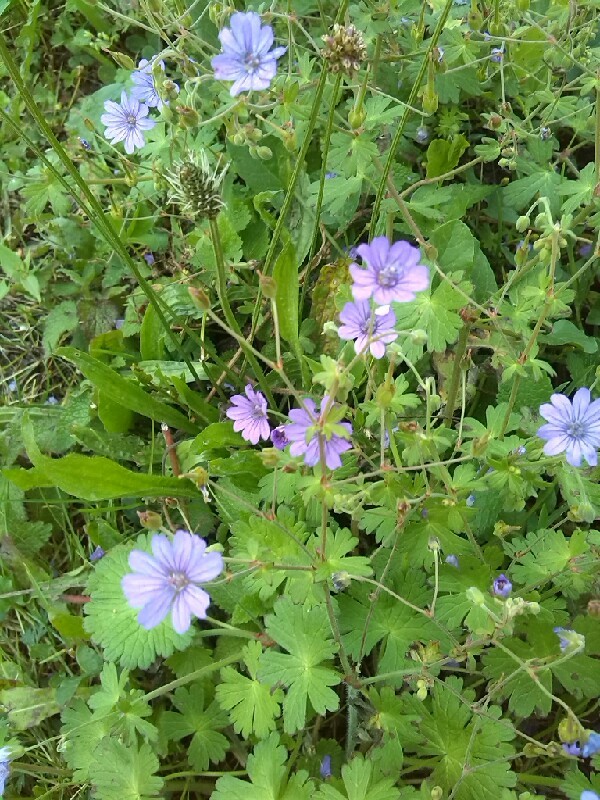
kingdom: Plantae
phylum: Tracheophyta
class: Magnoliopsida
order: Geraniales
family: Geraniaceae
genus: Geranium
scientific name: Geranium pyrenaicum
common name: Hedgerow crane's-bill
